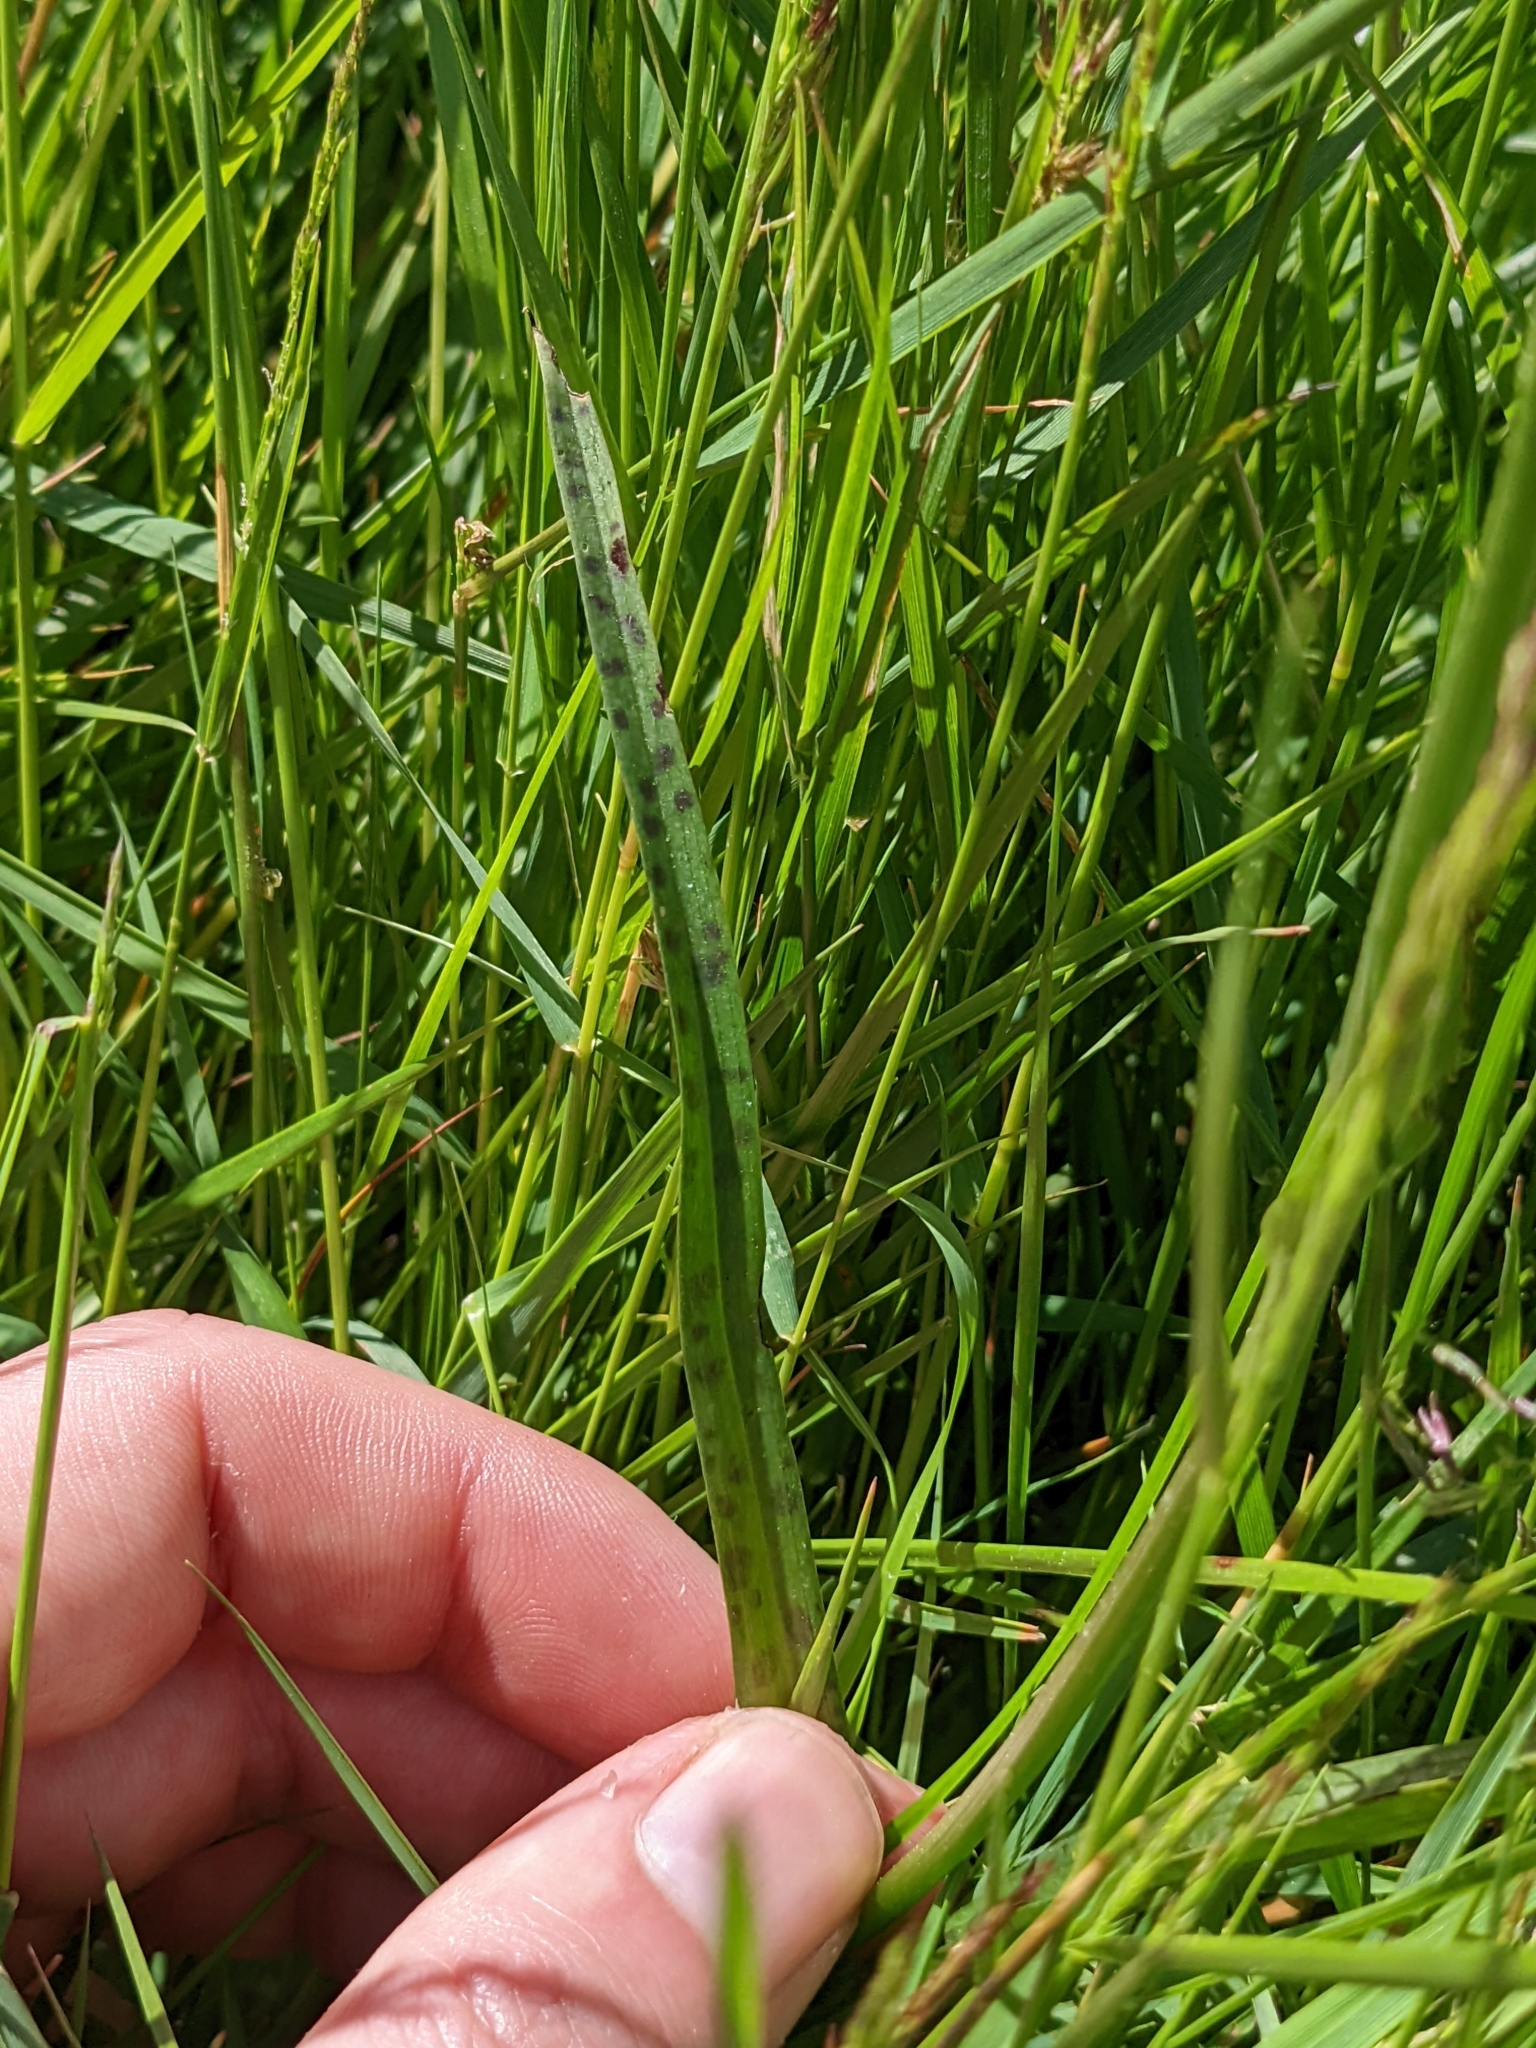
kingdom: Plantae
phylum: Tracheophyta
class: Liliopsida
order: Asparagales
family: Orchidaceae
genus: Dactylorhiza
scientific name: Dactylorhiza maculata
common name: Heath spotted-orchid
